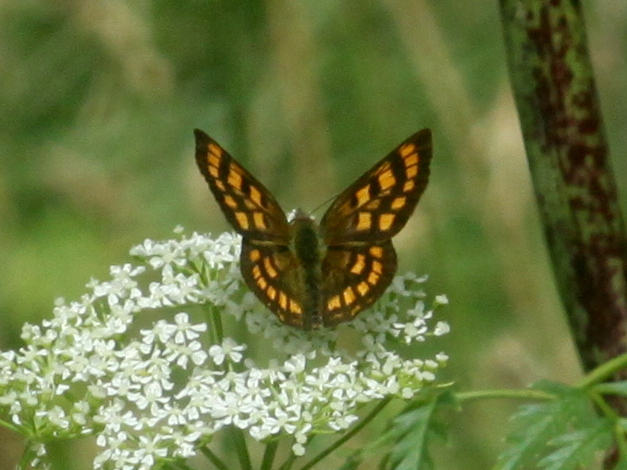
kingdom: Animalia
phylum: Arthropoda
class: Insecta
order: Lepidoptera
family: Lycaenidae
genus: Lycaena
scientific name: Lycaena
